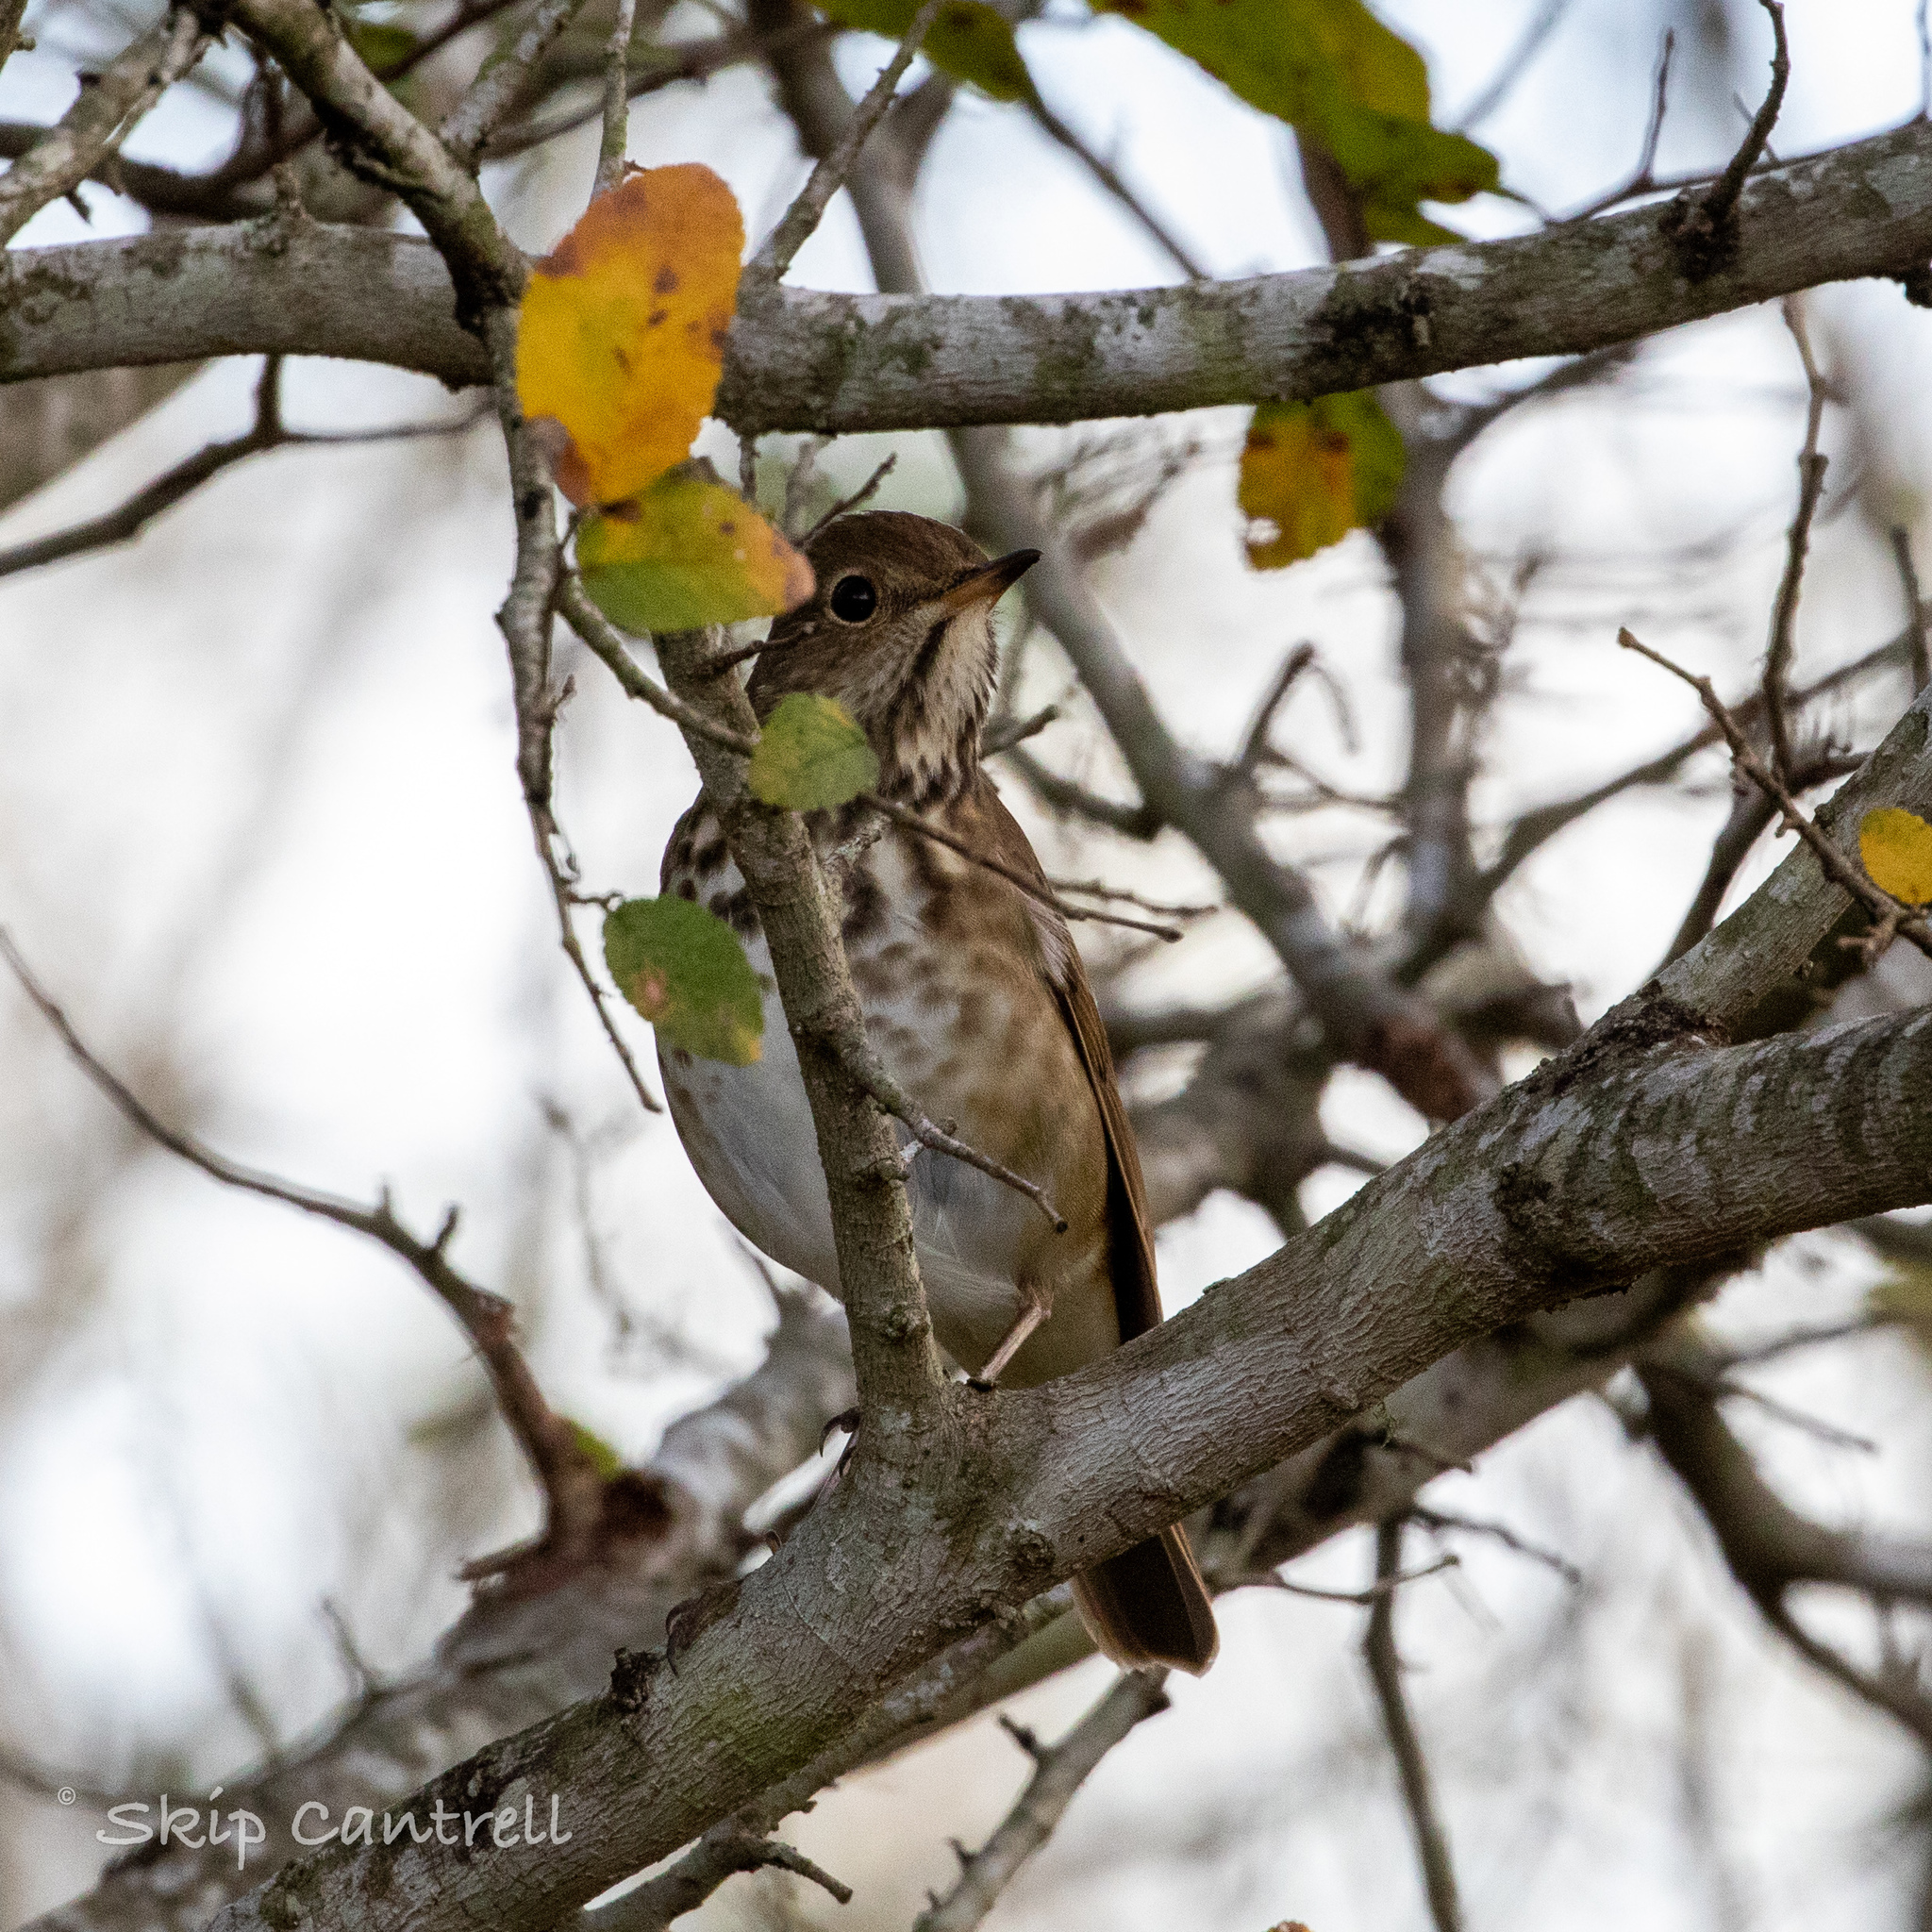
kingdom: Animalia
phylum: Chordata
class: Aves
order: Passeriformes
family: Turdidae
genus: Catharus
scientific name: Catharus guttatus
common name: Hermit thrush
